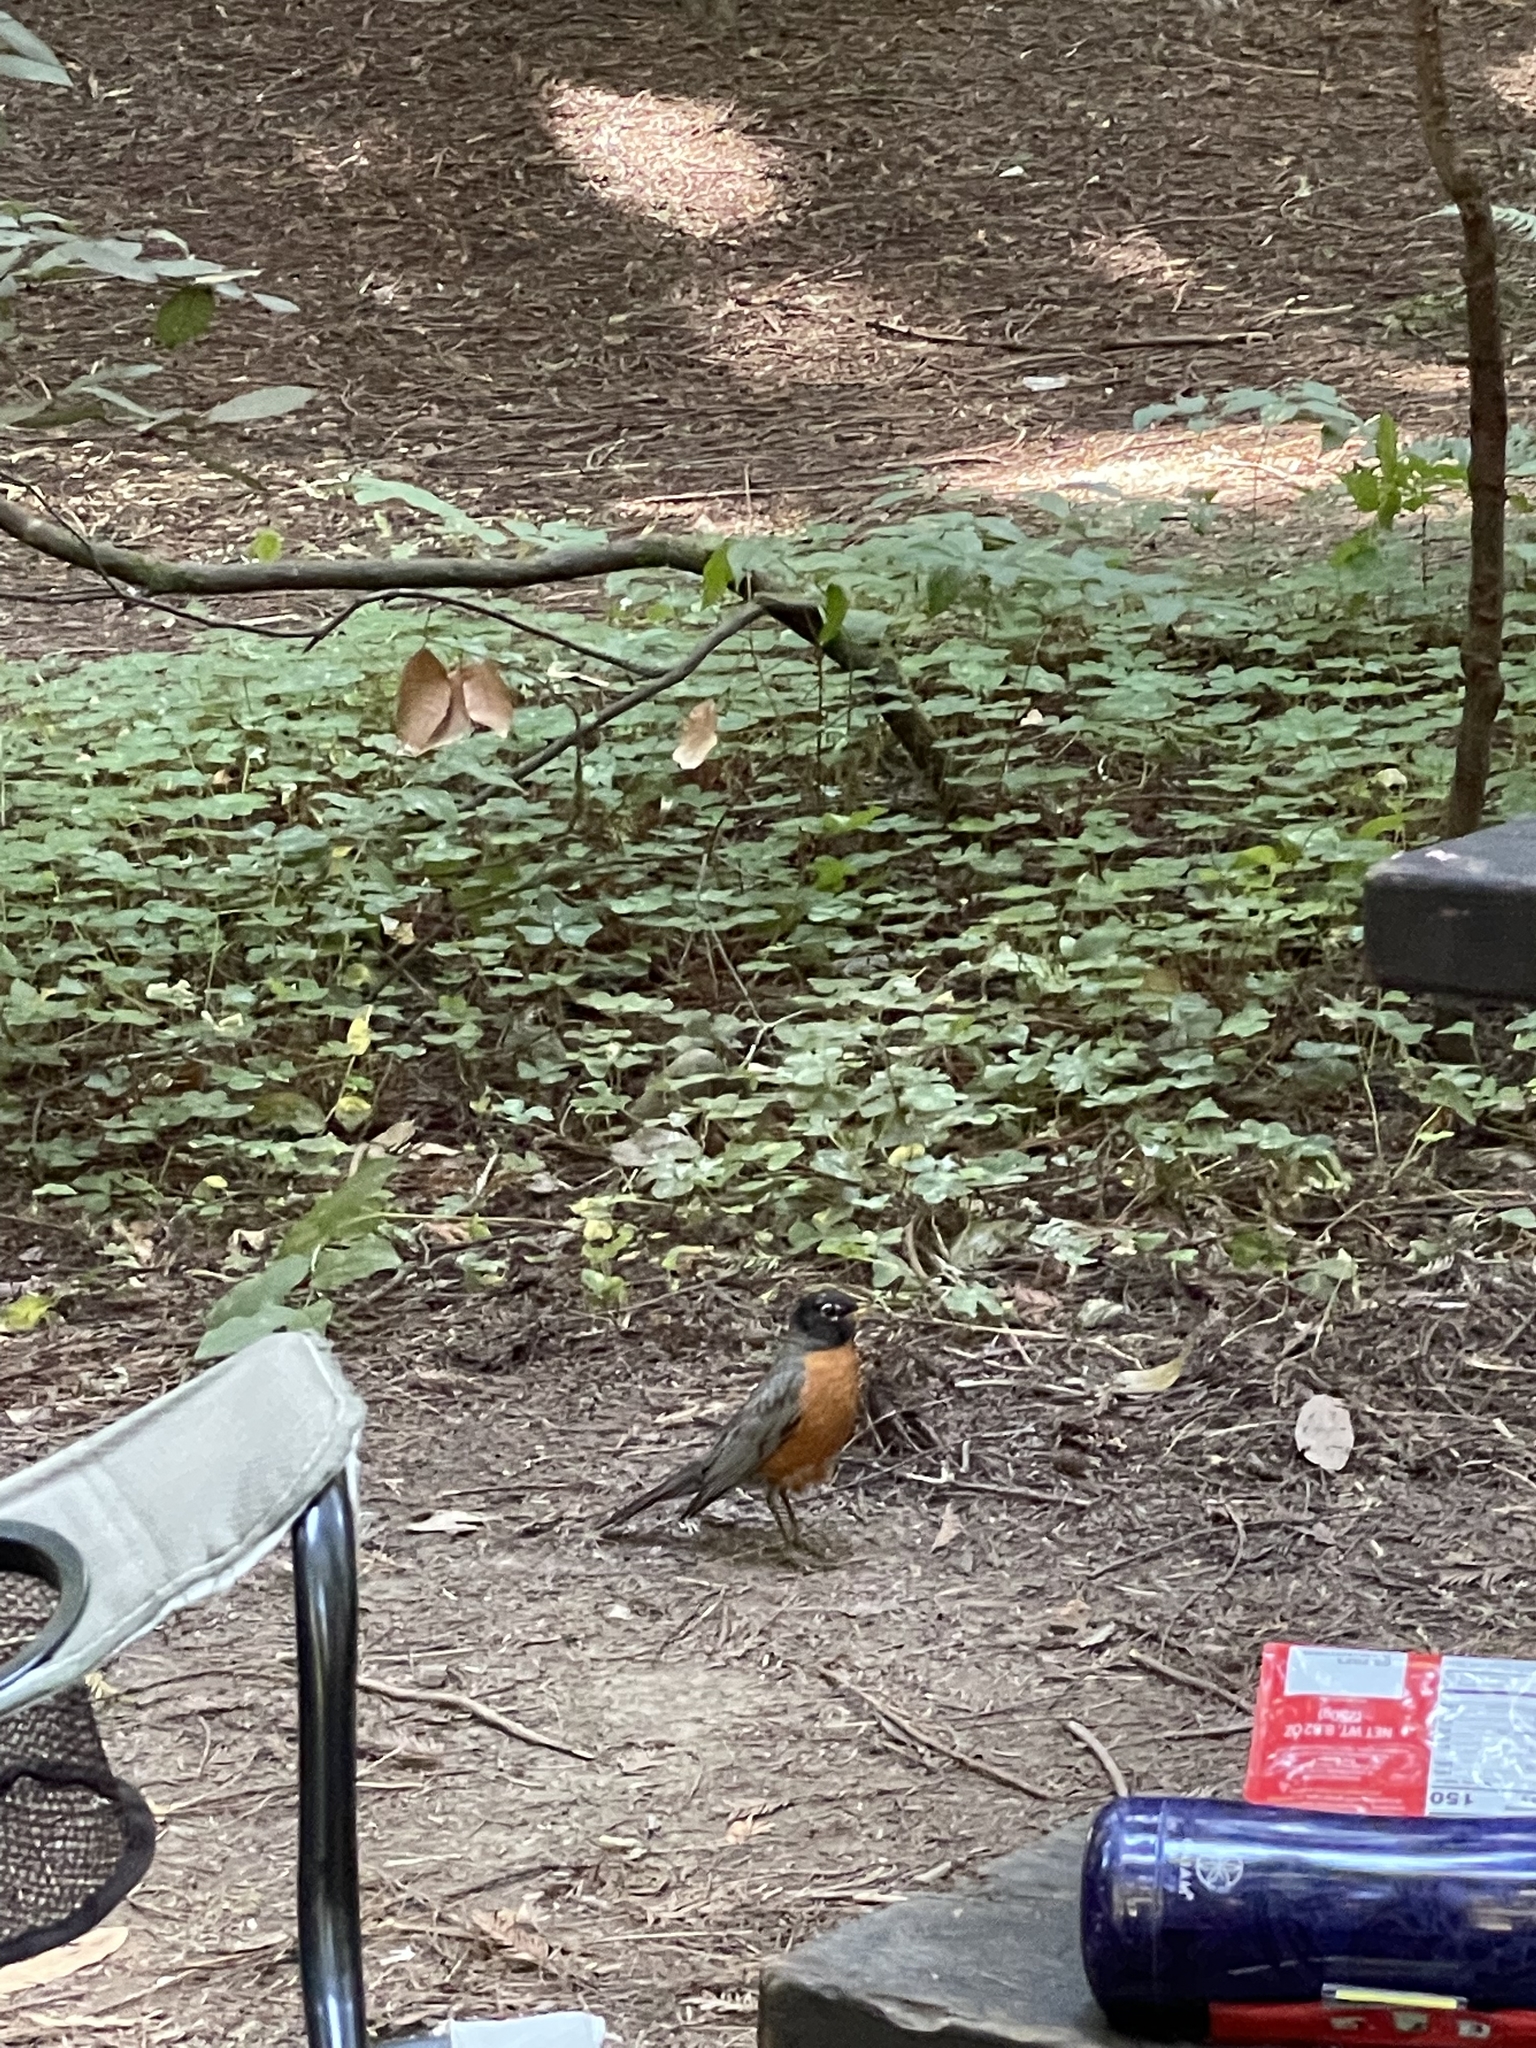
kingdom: Animalia
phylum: Chordata
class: Aves
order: Passeriformes
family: Turdidae
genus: Turdus
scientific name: Turdus migratorius
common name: American robin
